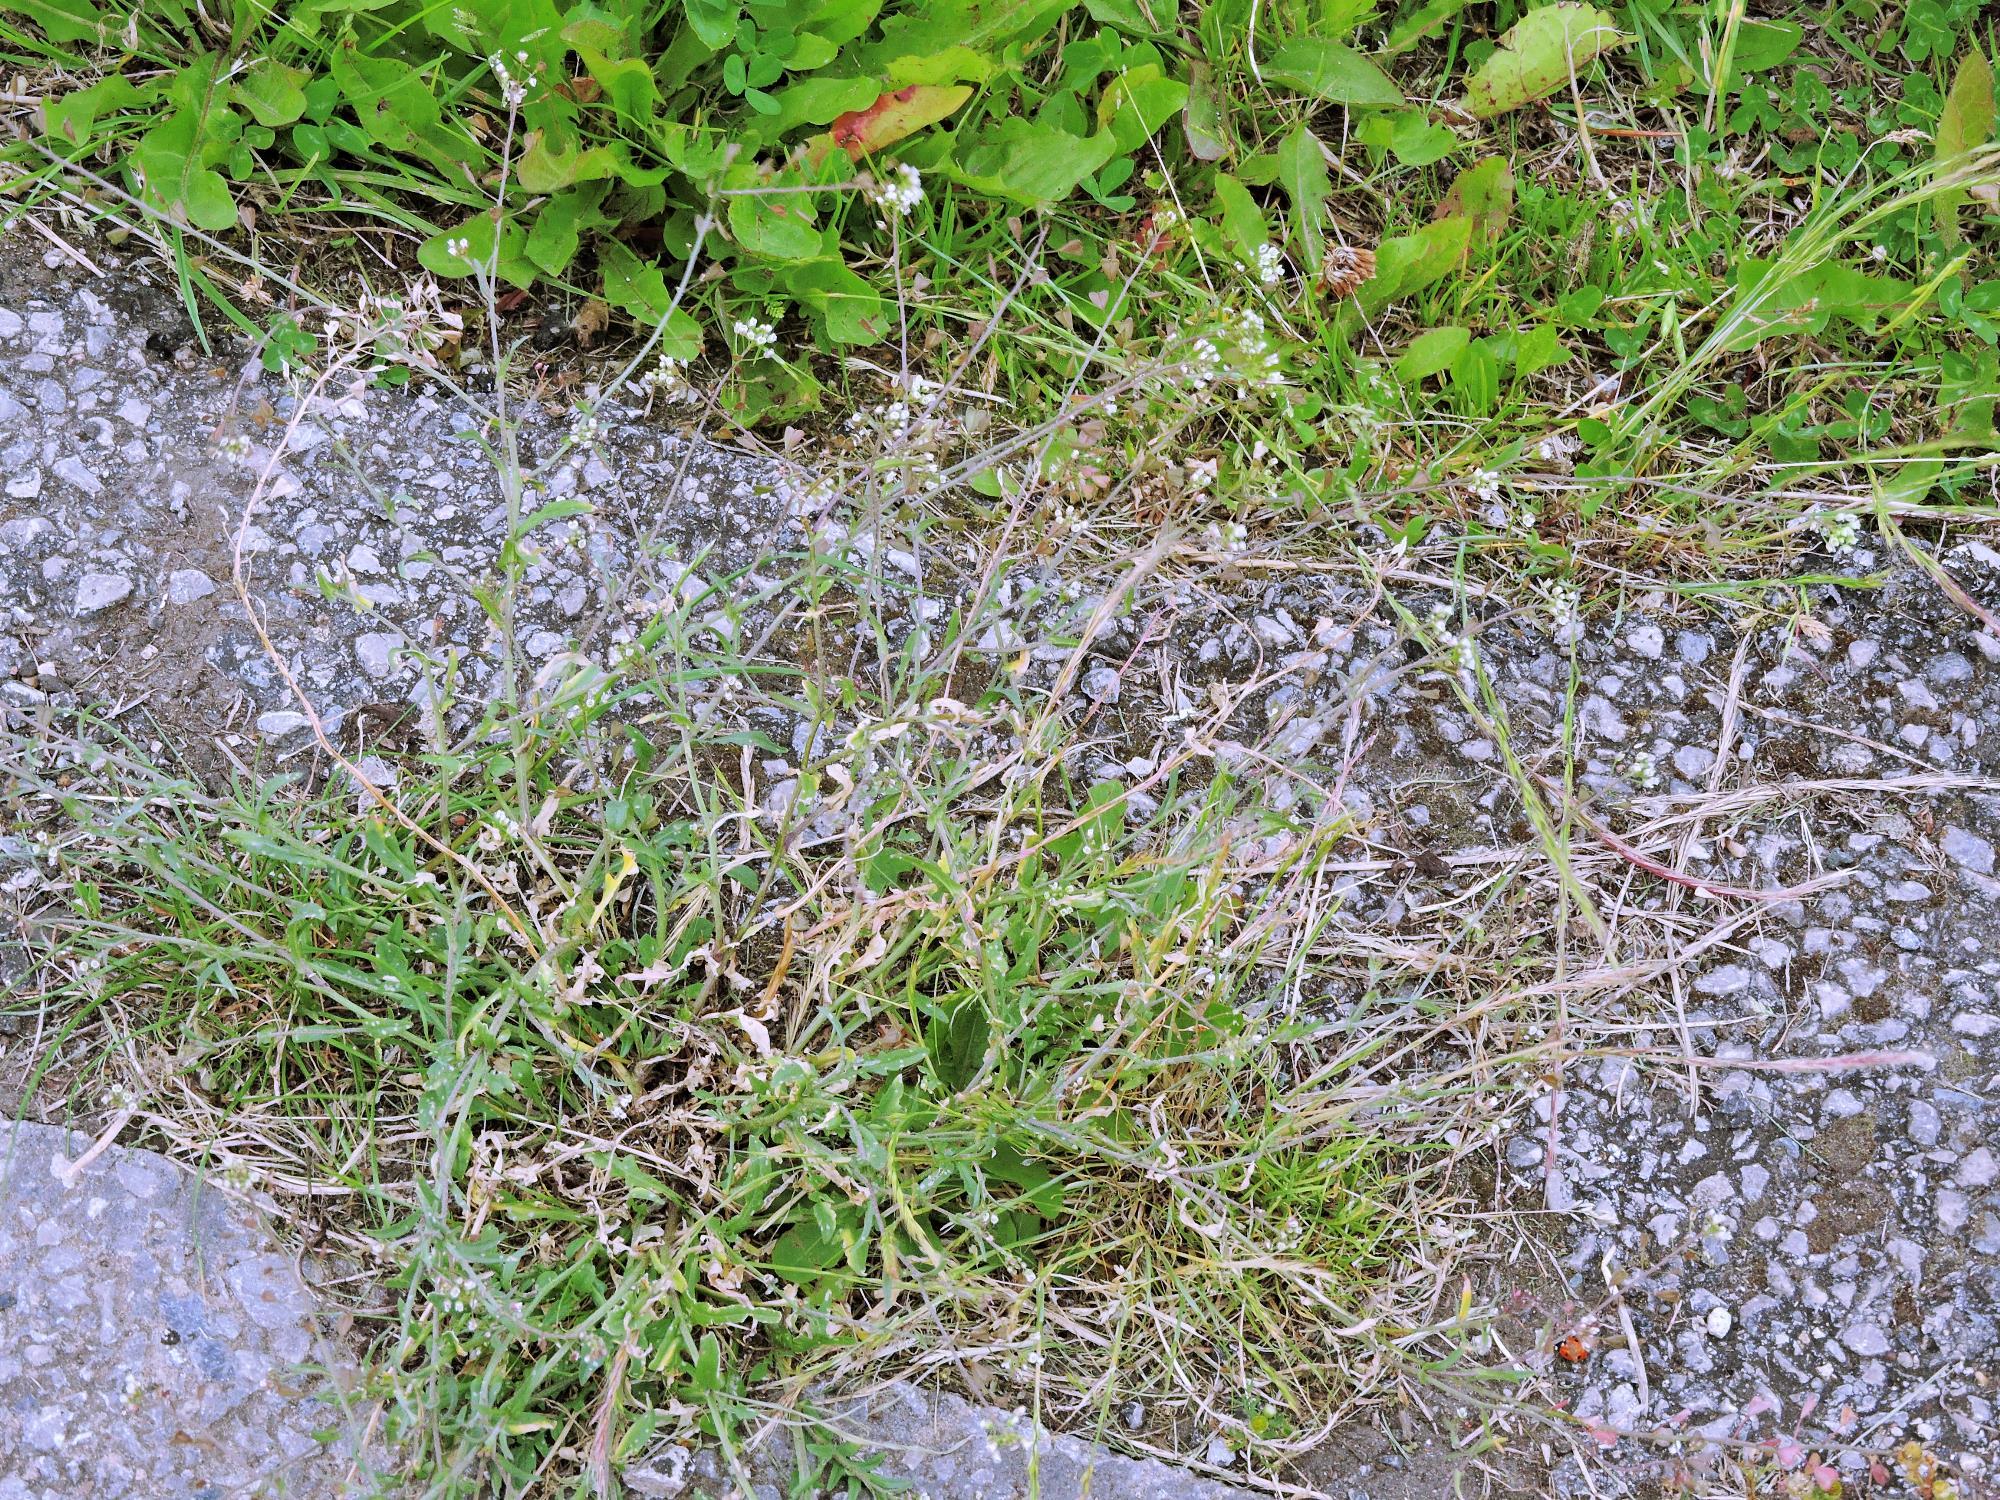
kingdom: Plantae
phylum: Tracheophyta
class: Magnoliopsida
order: Brassicales
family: Brassicaceae
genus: Capsella
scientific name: Capsella bursa-pastoris
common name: Shepherd's purse
